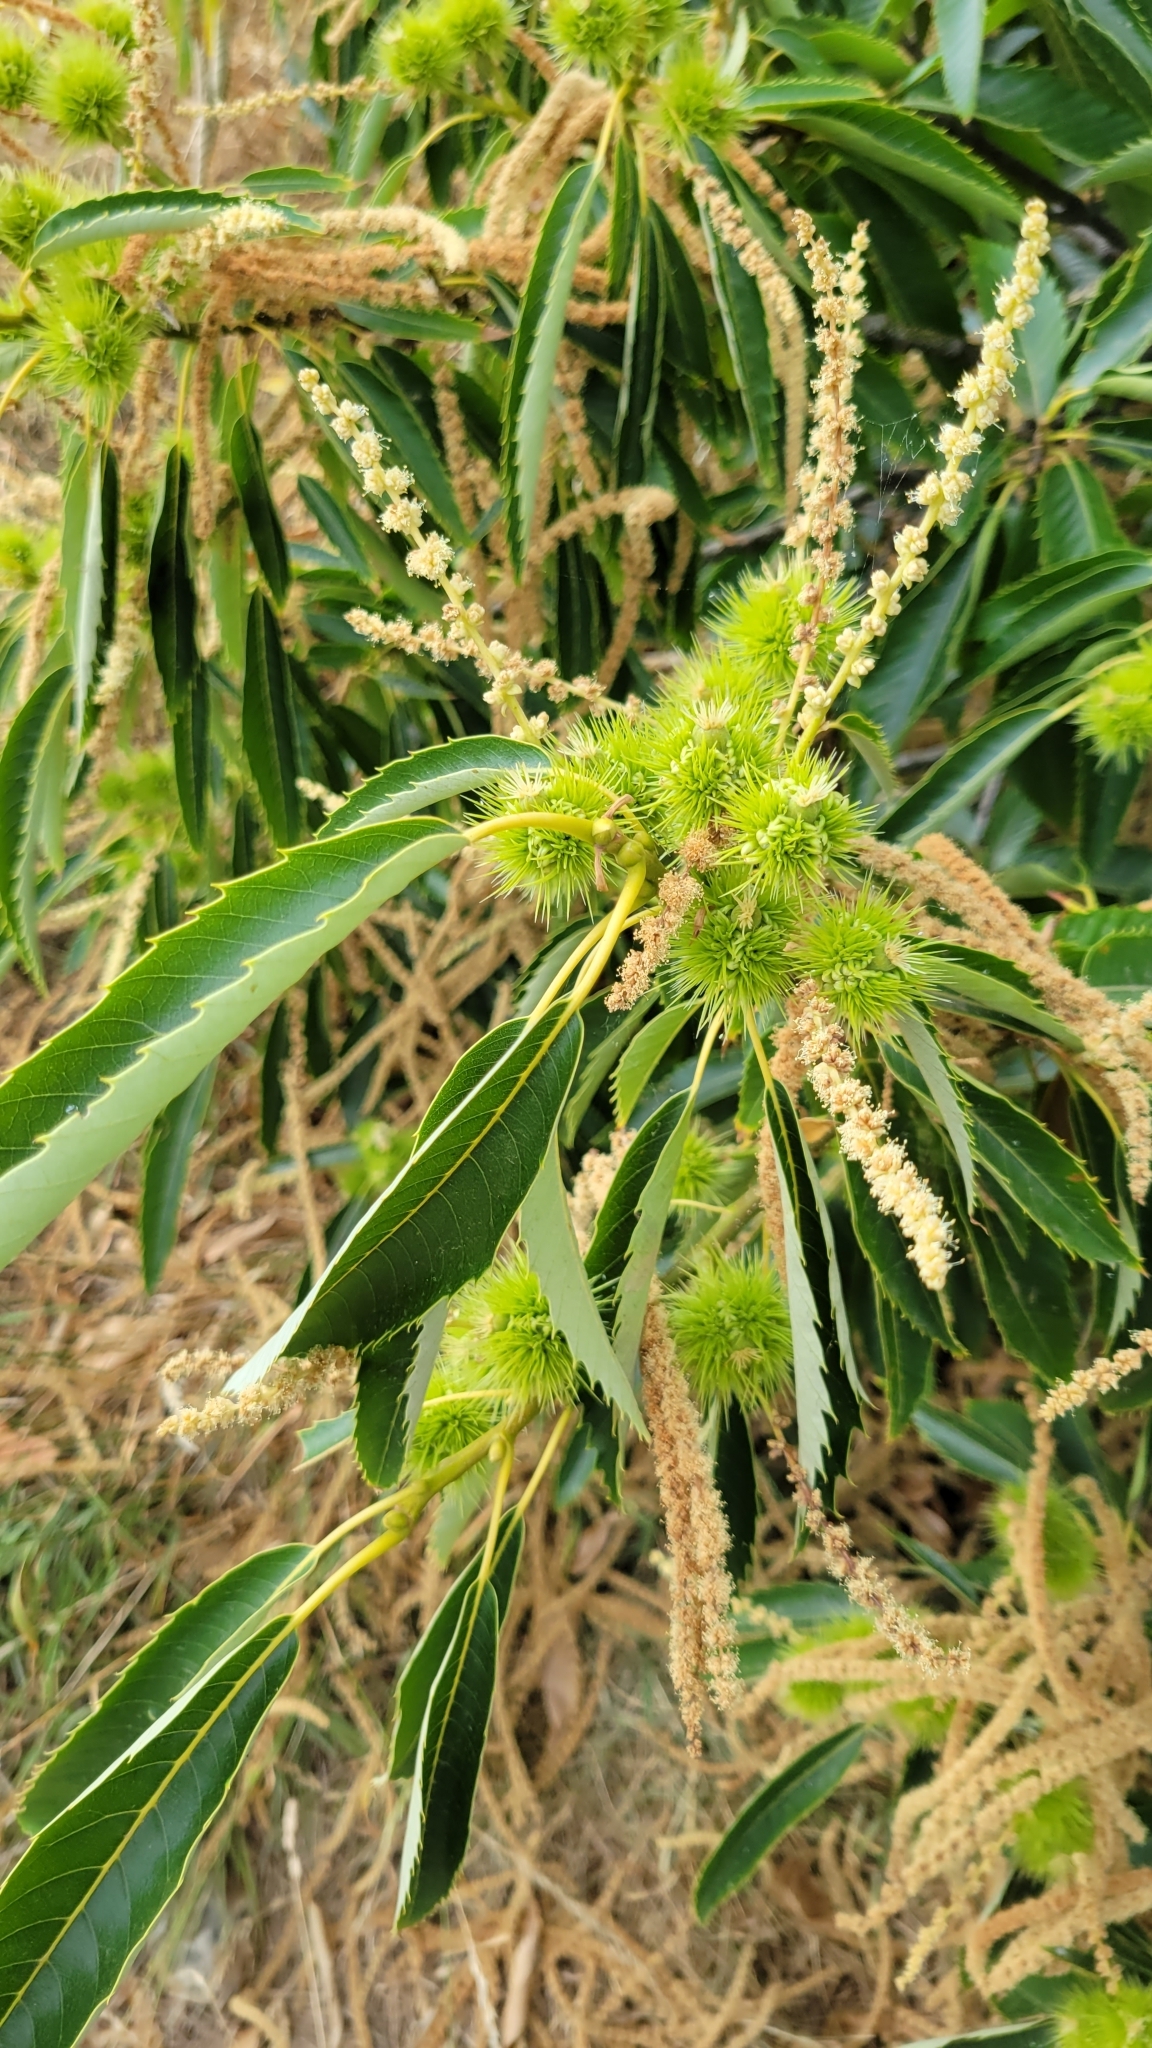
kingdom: Plantae
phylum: Tracheophyta
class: Magnoliopsida
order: Fagales
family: Fagaceae
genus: Castanea
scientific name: Castanea sativa
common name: Sweet chestnut
